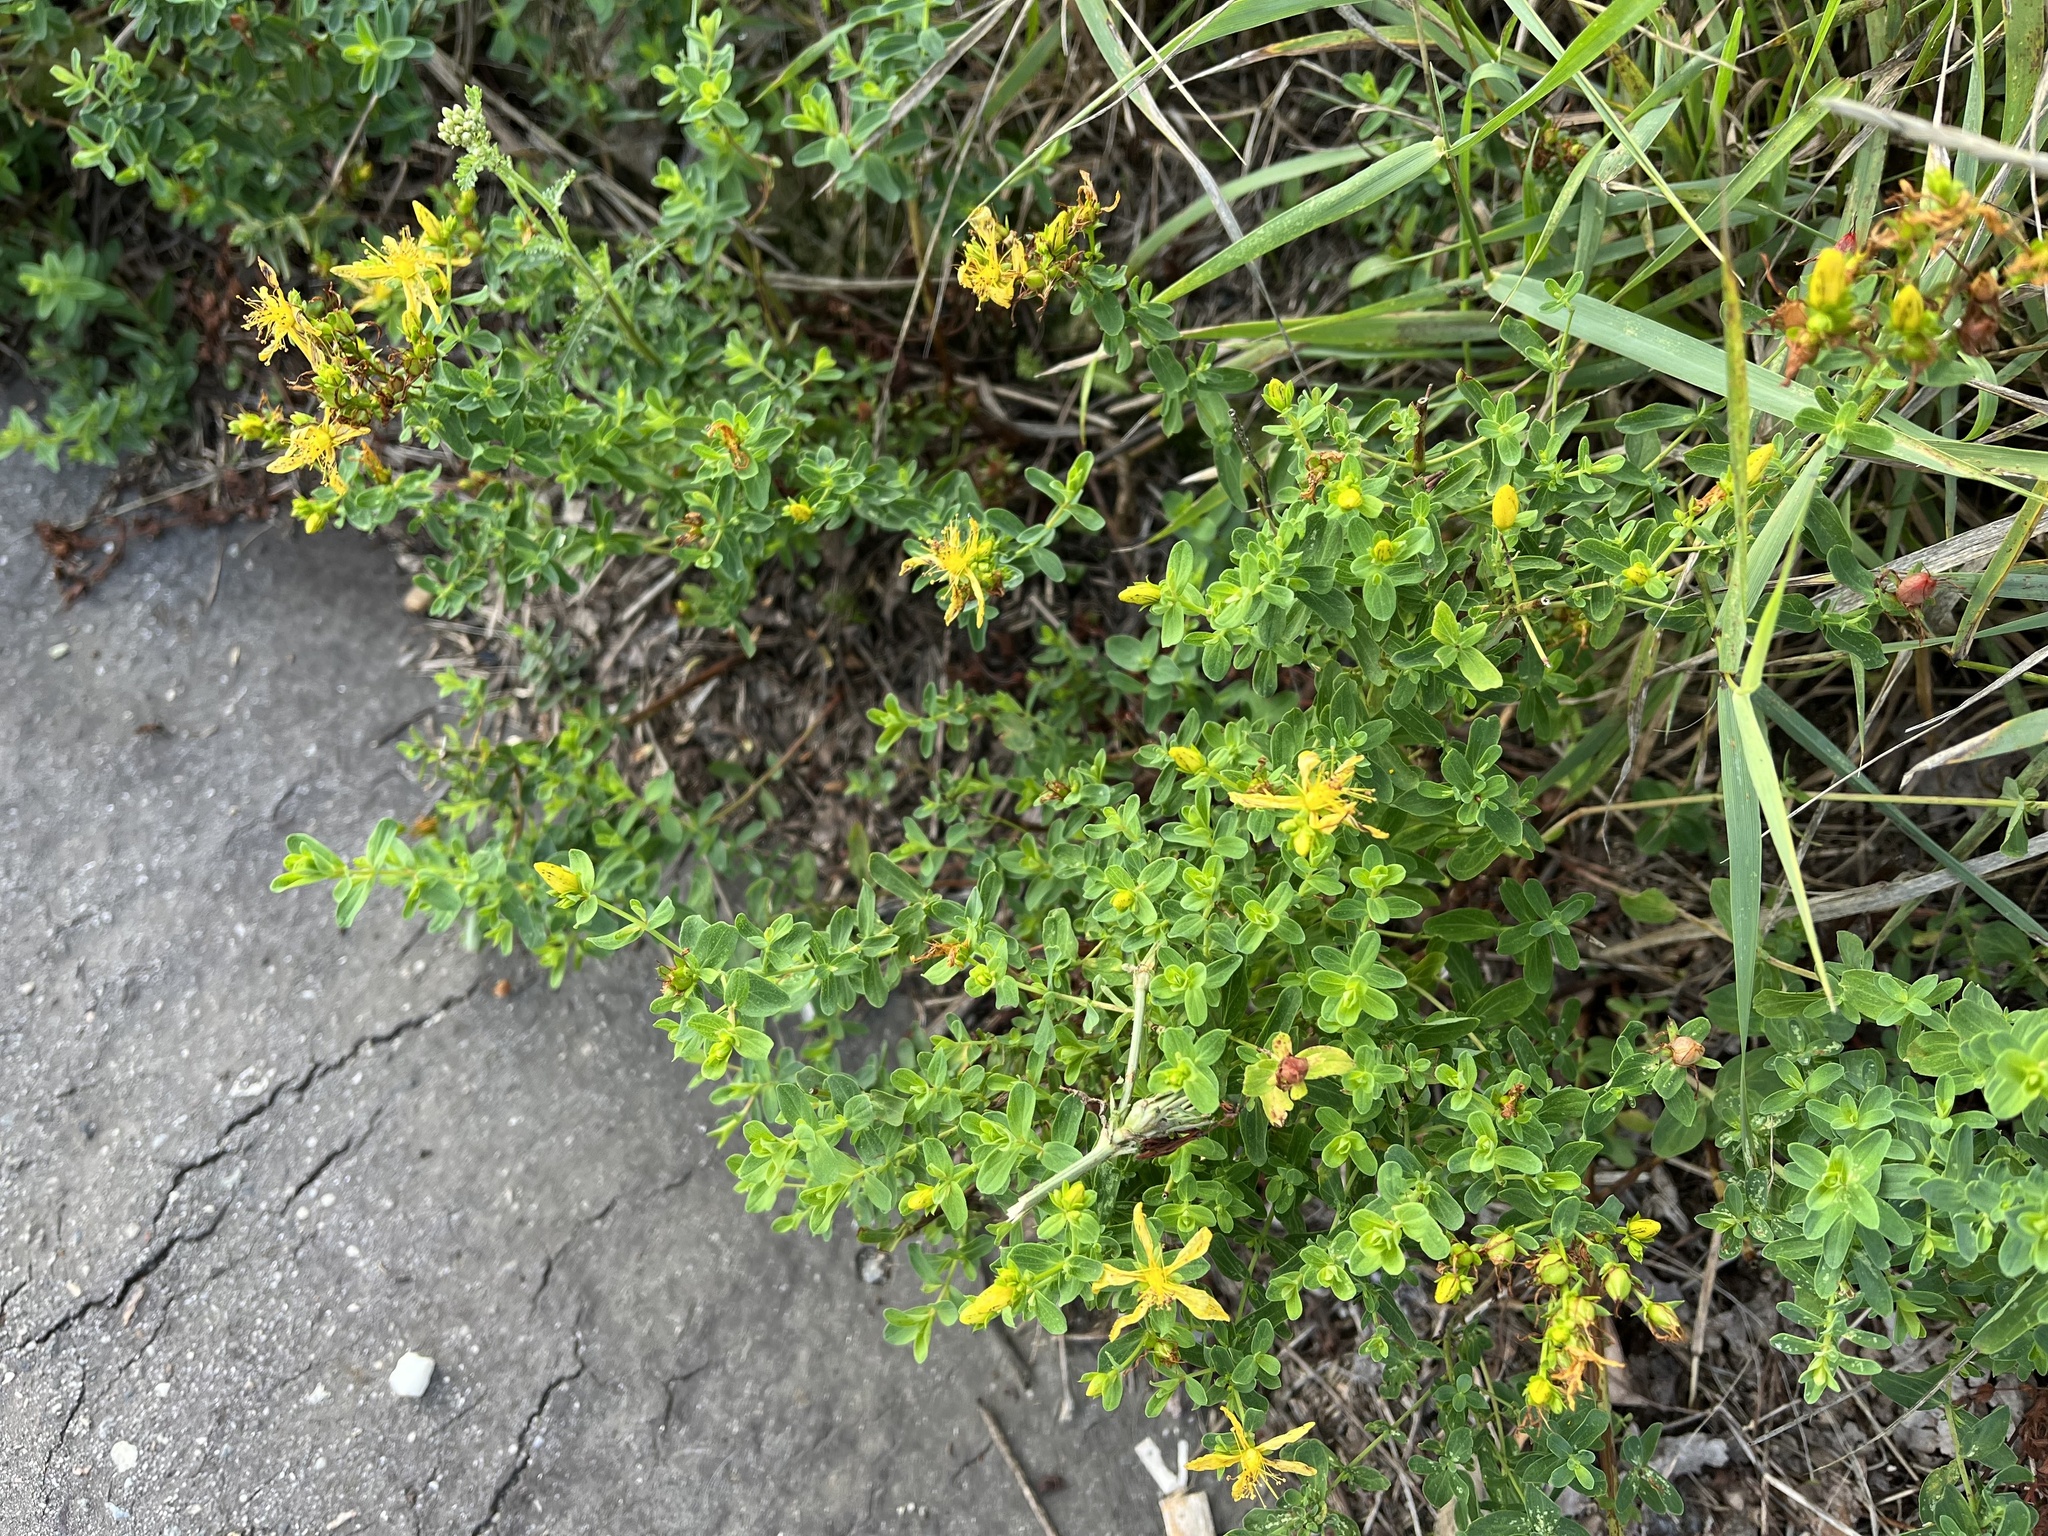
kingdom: Plantae
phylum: Tracheophyta
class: Magnoliopsida
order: Malpighiales
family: Hypericaceae
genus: Hypericum
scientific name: Hypericum perforatum
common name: Common st. johnswort
